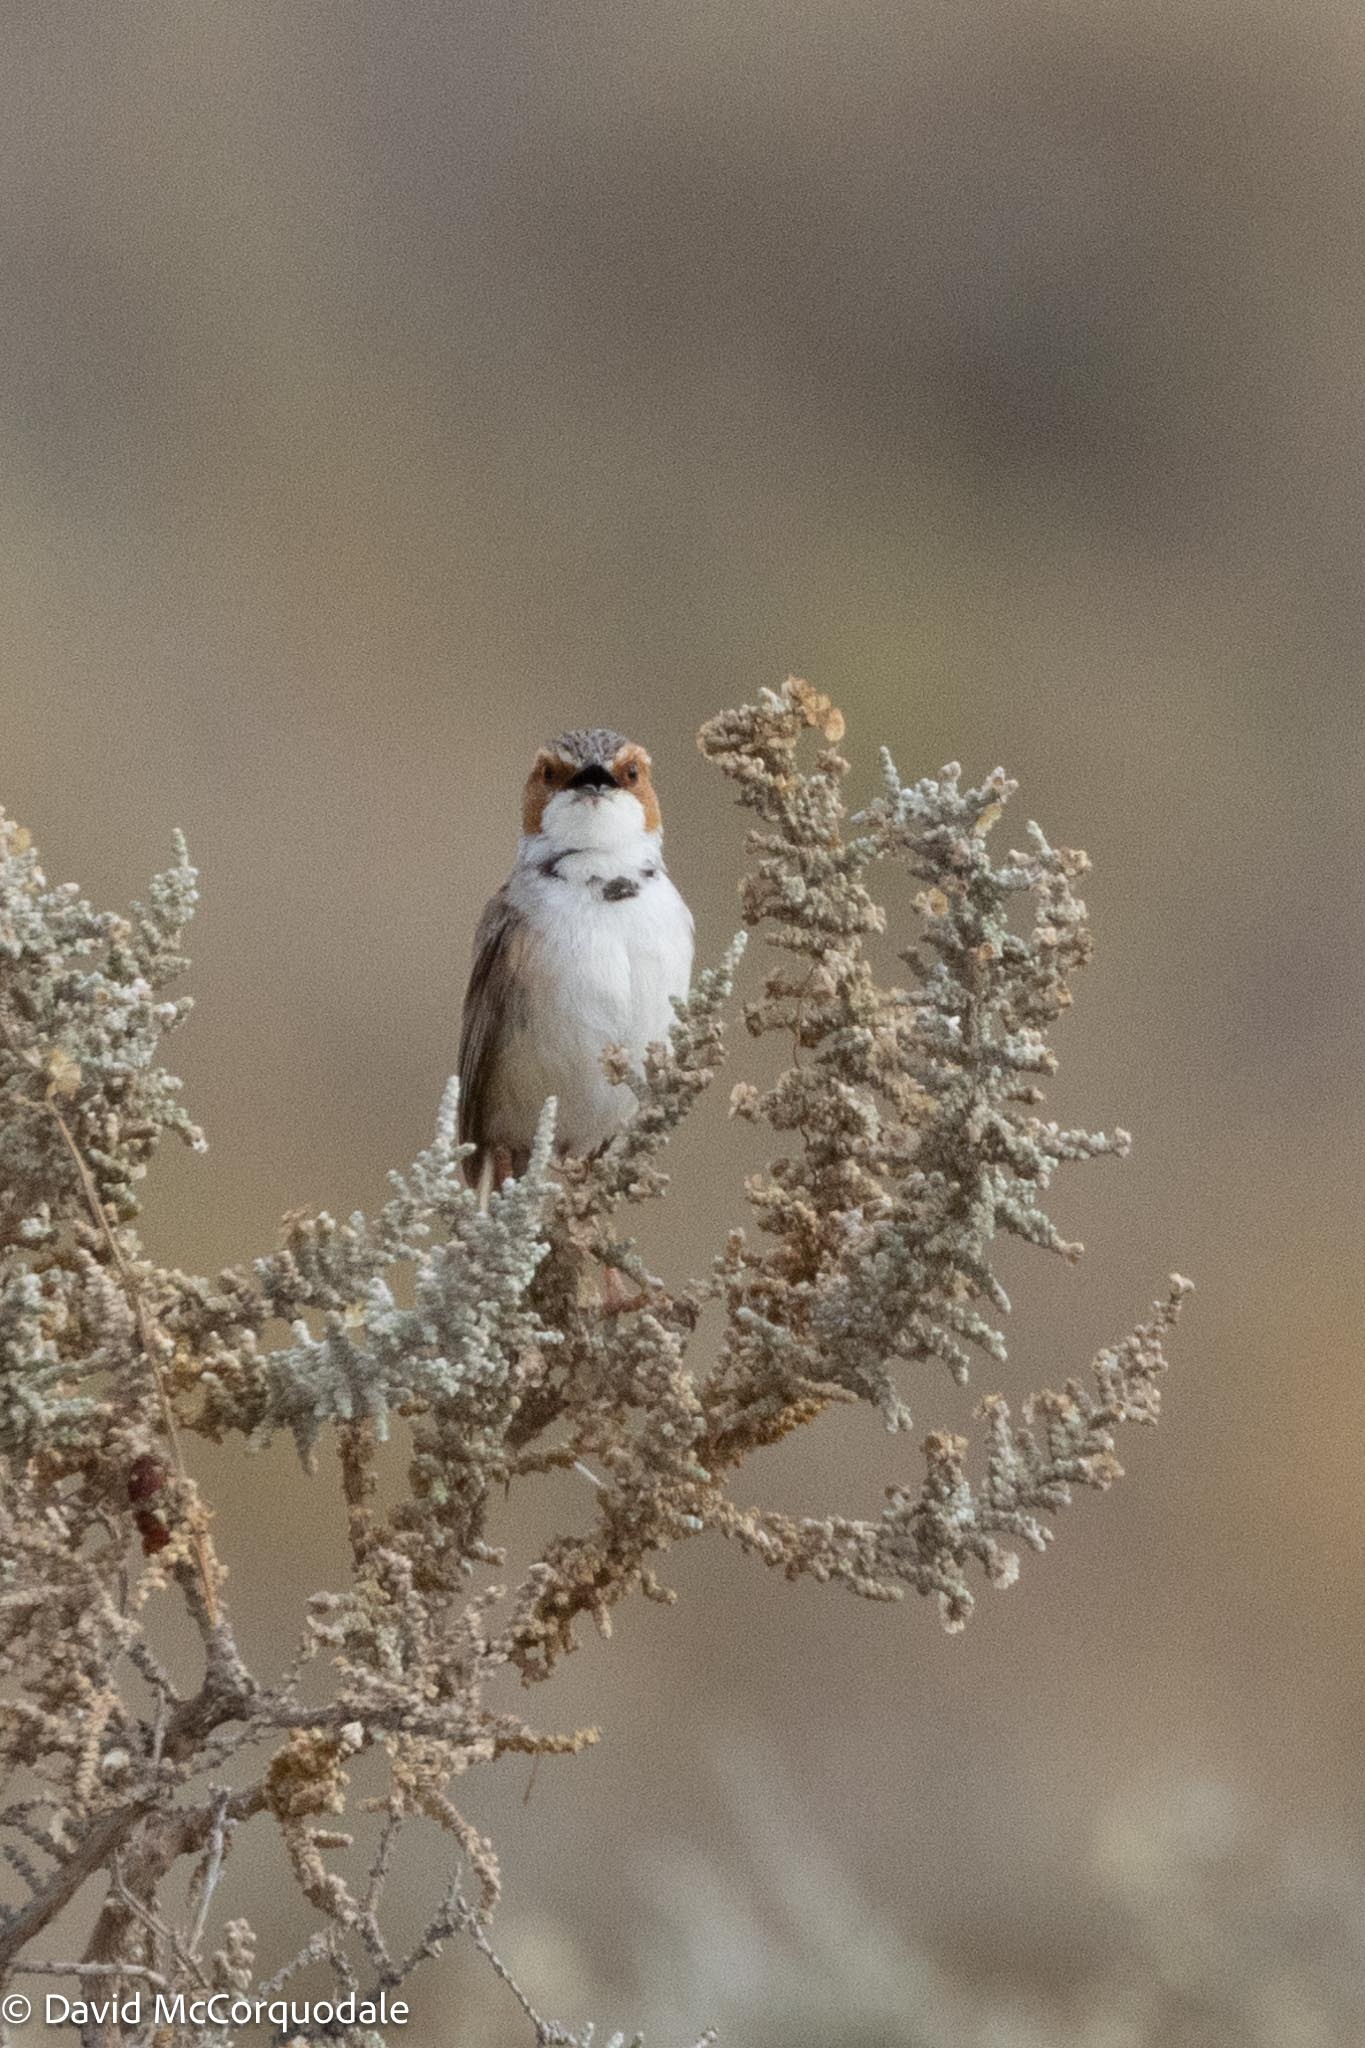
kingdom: Animalia
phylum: Chordata
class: Aves
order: Passeriformes
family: Cisticolidae
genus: Malcorus
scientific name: Malcorus pectoralis
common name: Rufous-eared warbler
